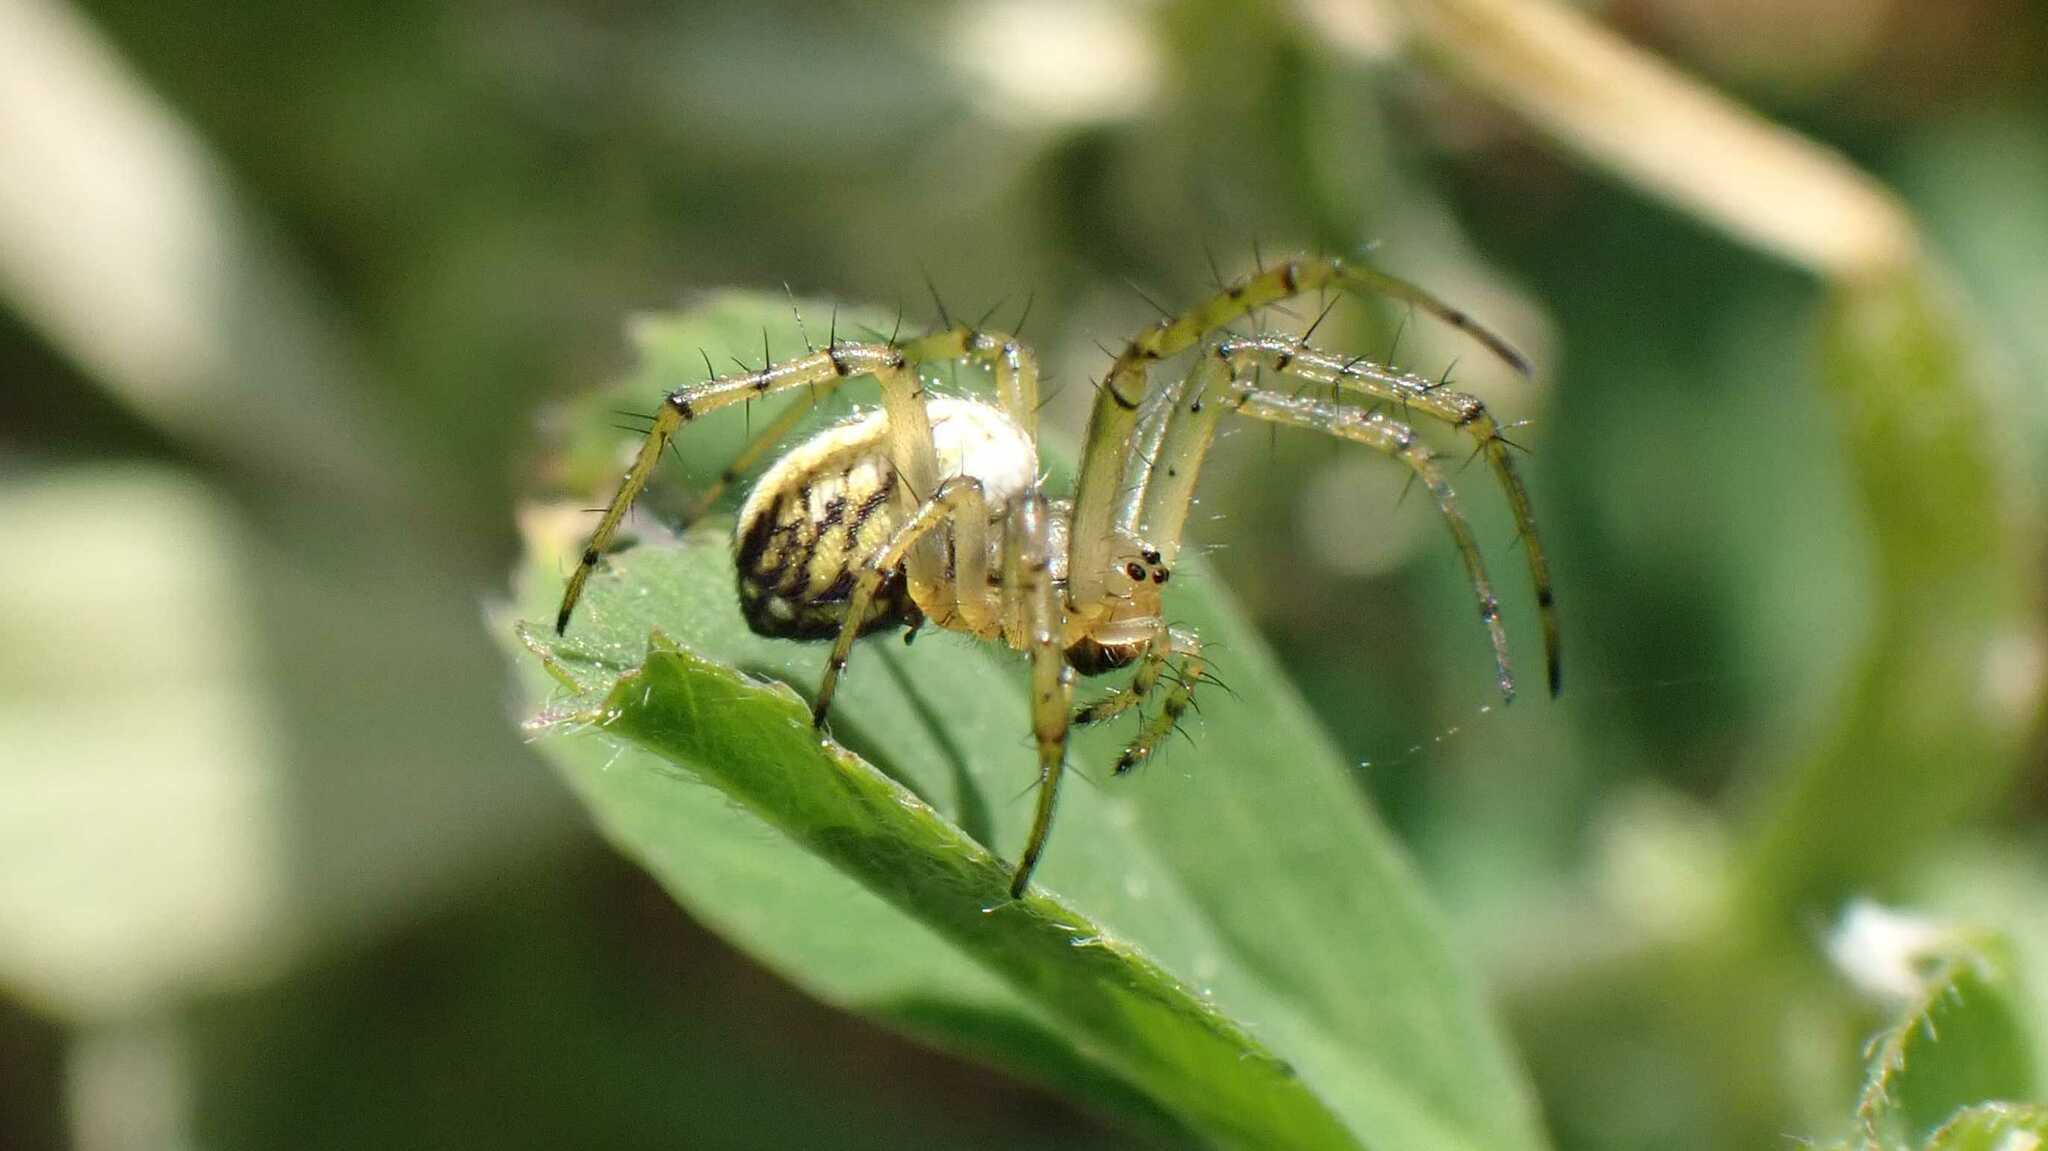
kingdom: Animalia
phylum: Arthropoda
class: Arachnida
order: Araneae
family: Araneidae
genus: Mangora
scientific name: Mangora acalypha
